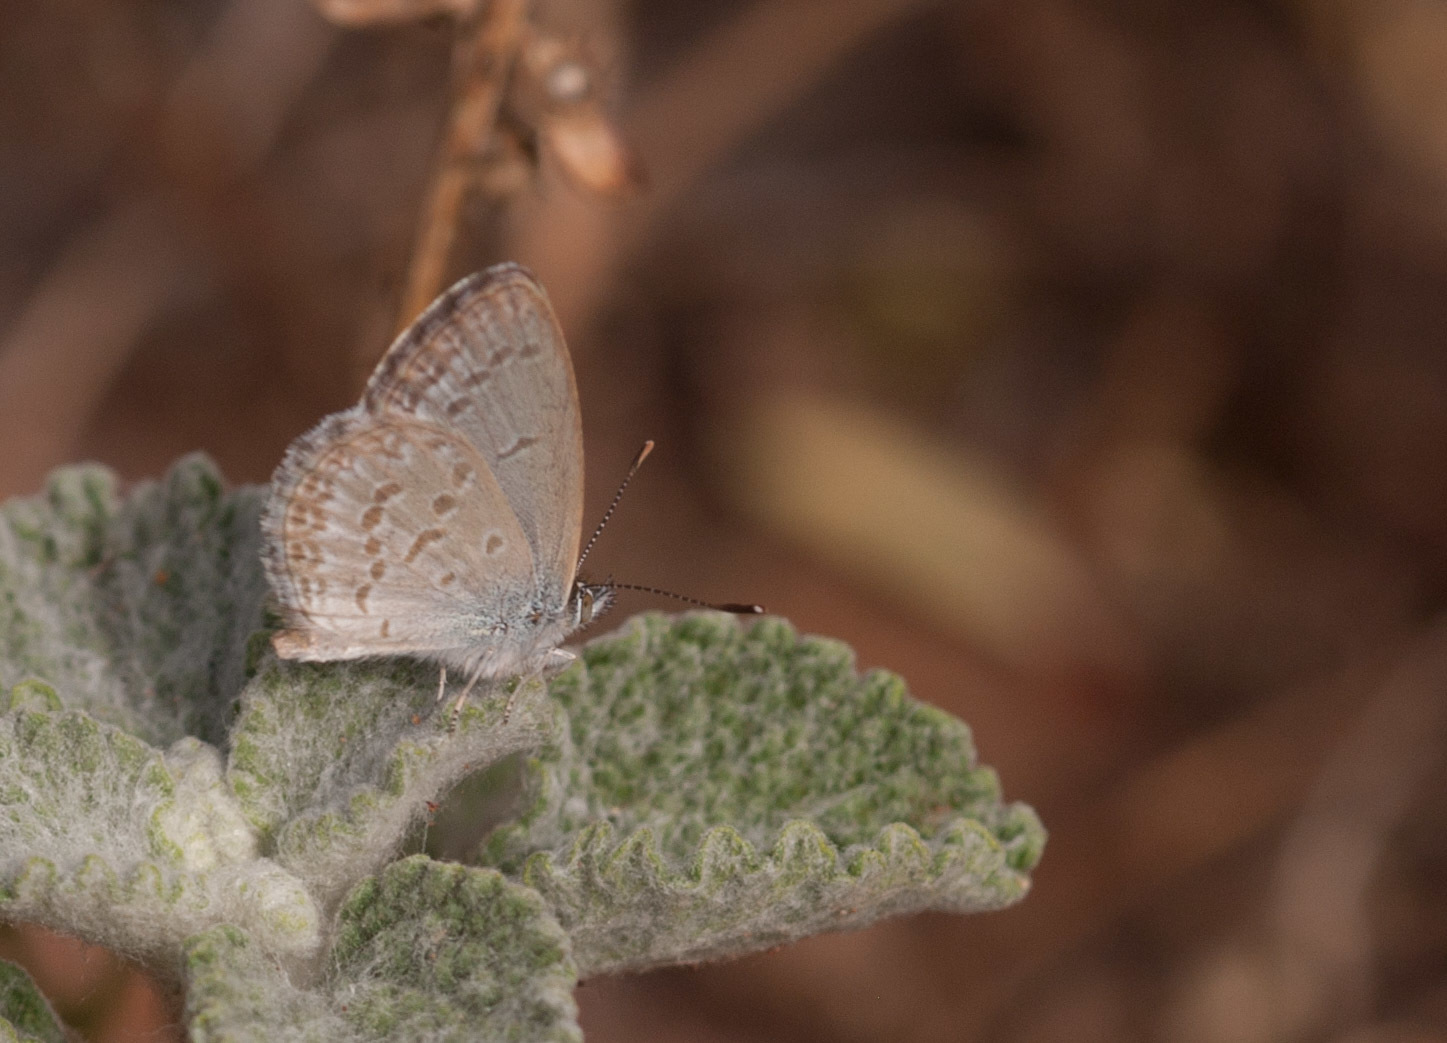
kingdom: Animalia
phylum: Arthropoda
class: Insecta
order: Lepidoptera
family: Lycaenidae
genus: Zizina
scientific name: Zizina labradus
